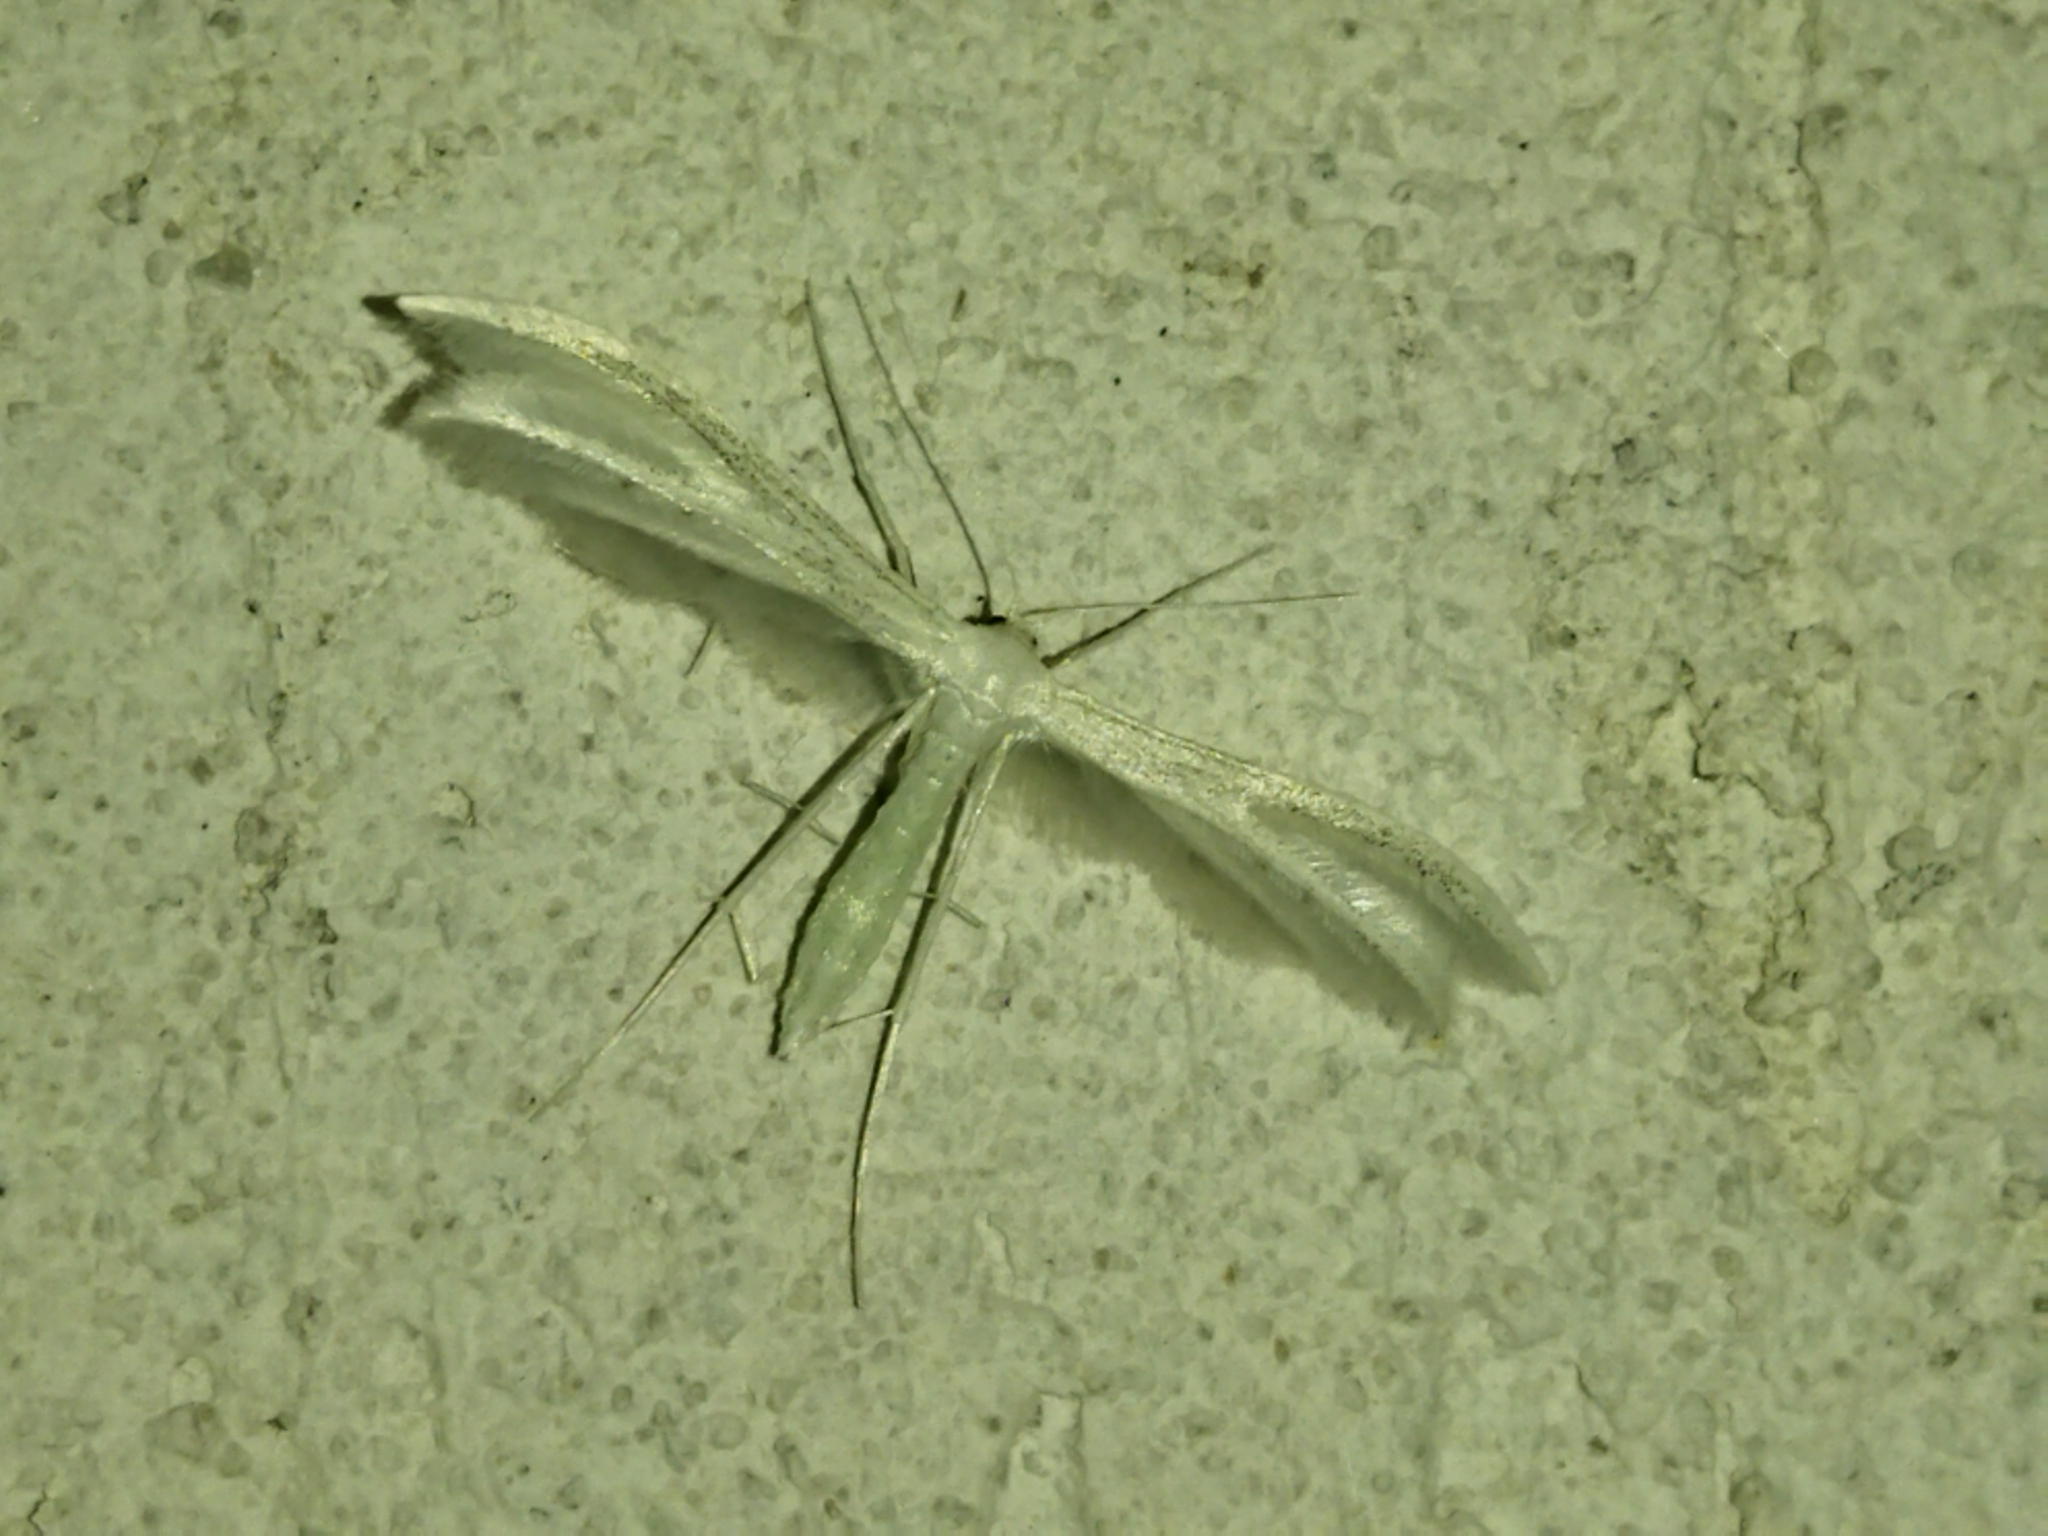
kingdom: Animalia
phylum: Arthropoda
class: Insecta
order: Lepidoptera
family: Pterophoridae
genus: Pterophorus
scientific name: Pterophorus pentadactyla
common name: White plume moth
